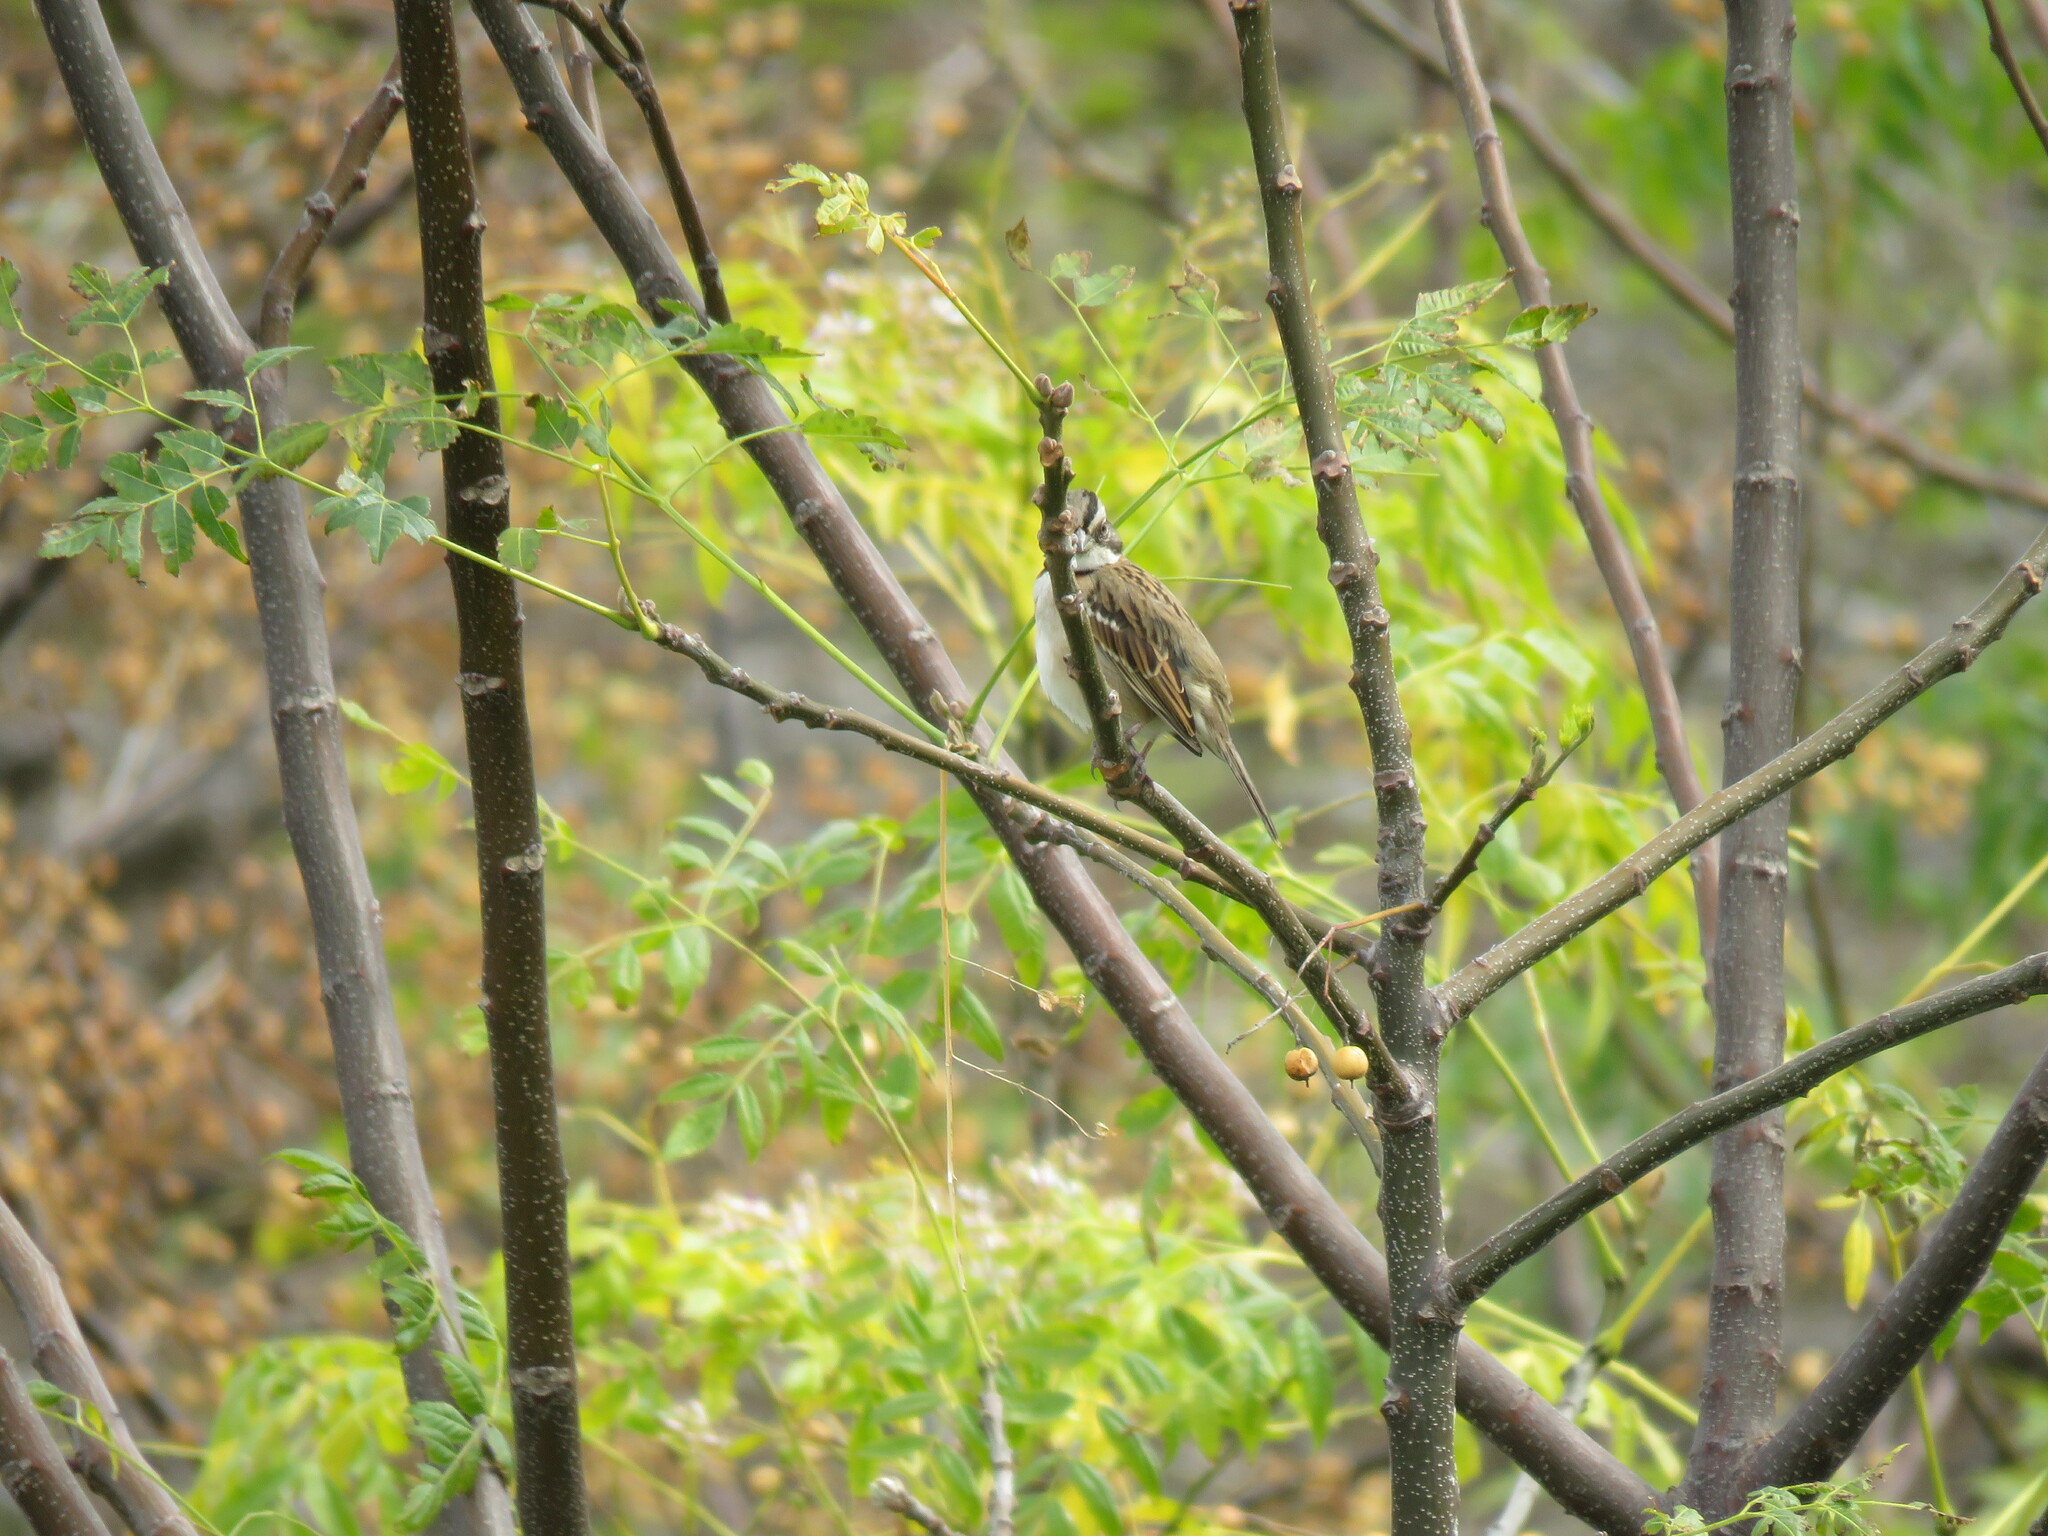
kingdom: Animalia
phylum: Chordata
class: Aves
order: Passeriformes
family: Passerellidae
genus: Zonotrichia
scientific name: Zonotrichia capensis
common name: Rufous-collared sparrow
